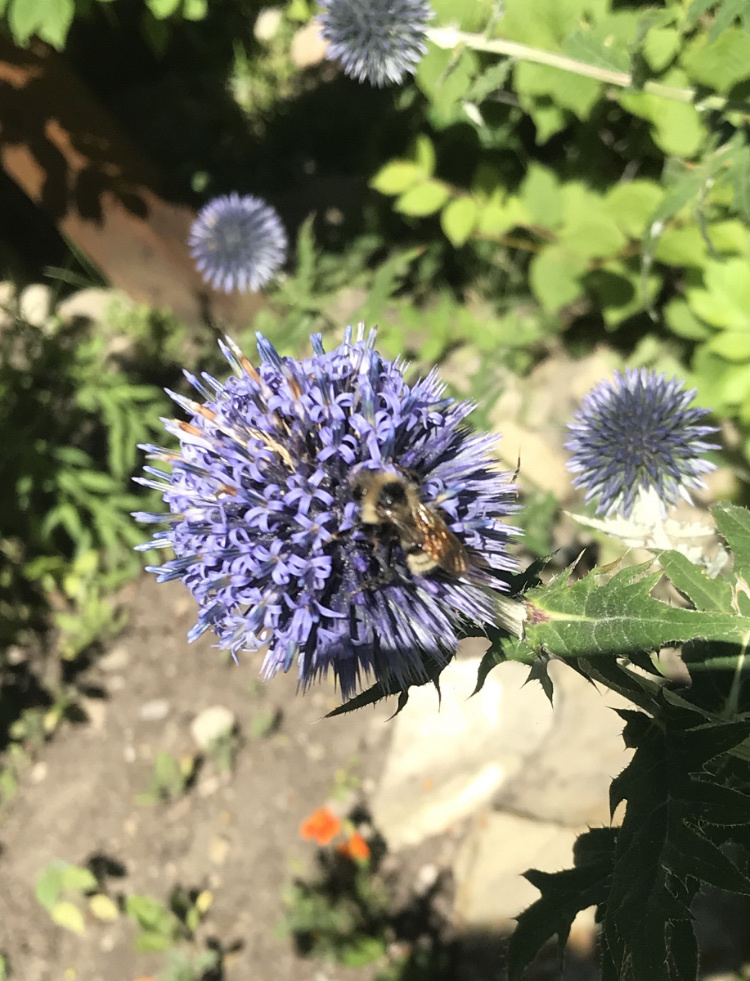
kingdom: Animalia
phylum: Arthropoda
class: Insecta
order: Hymenoptera
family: Apidae
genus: Bombus
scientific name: Bombus insularis
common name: Indiscriminate cuckoo bumble bee
